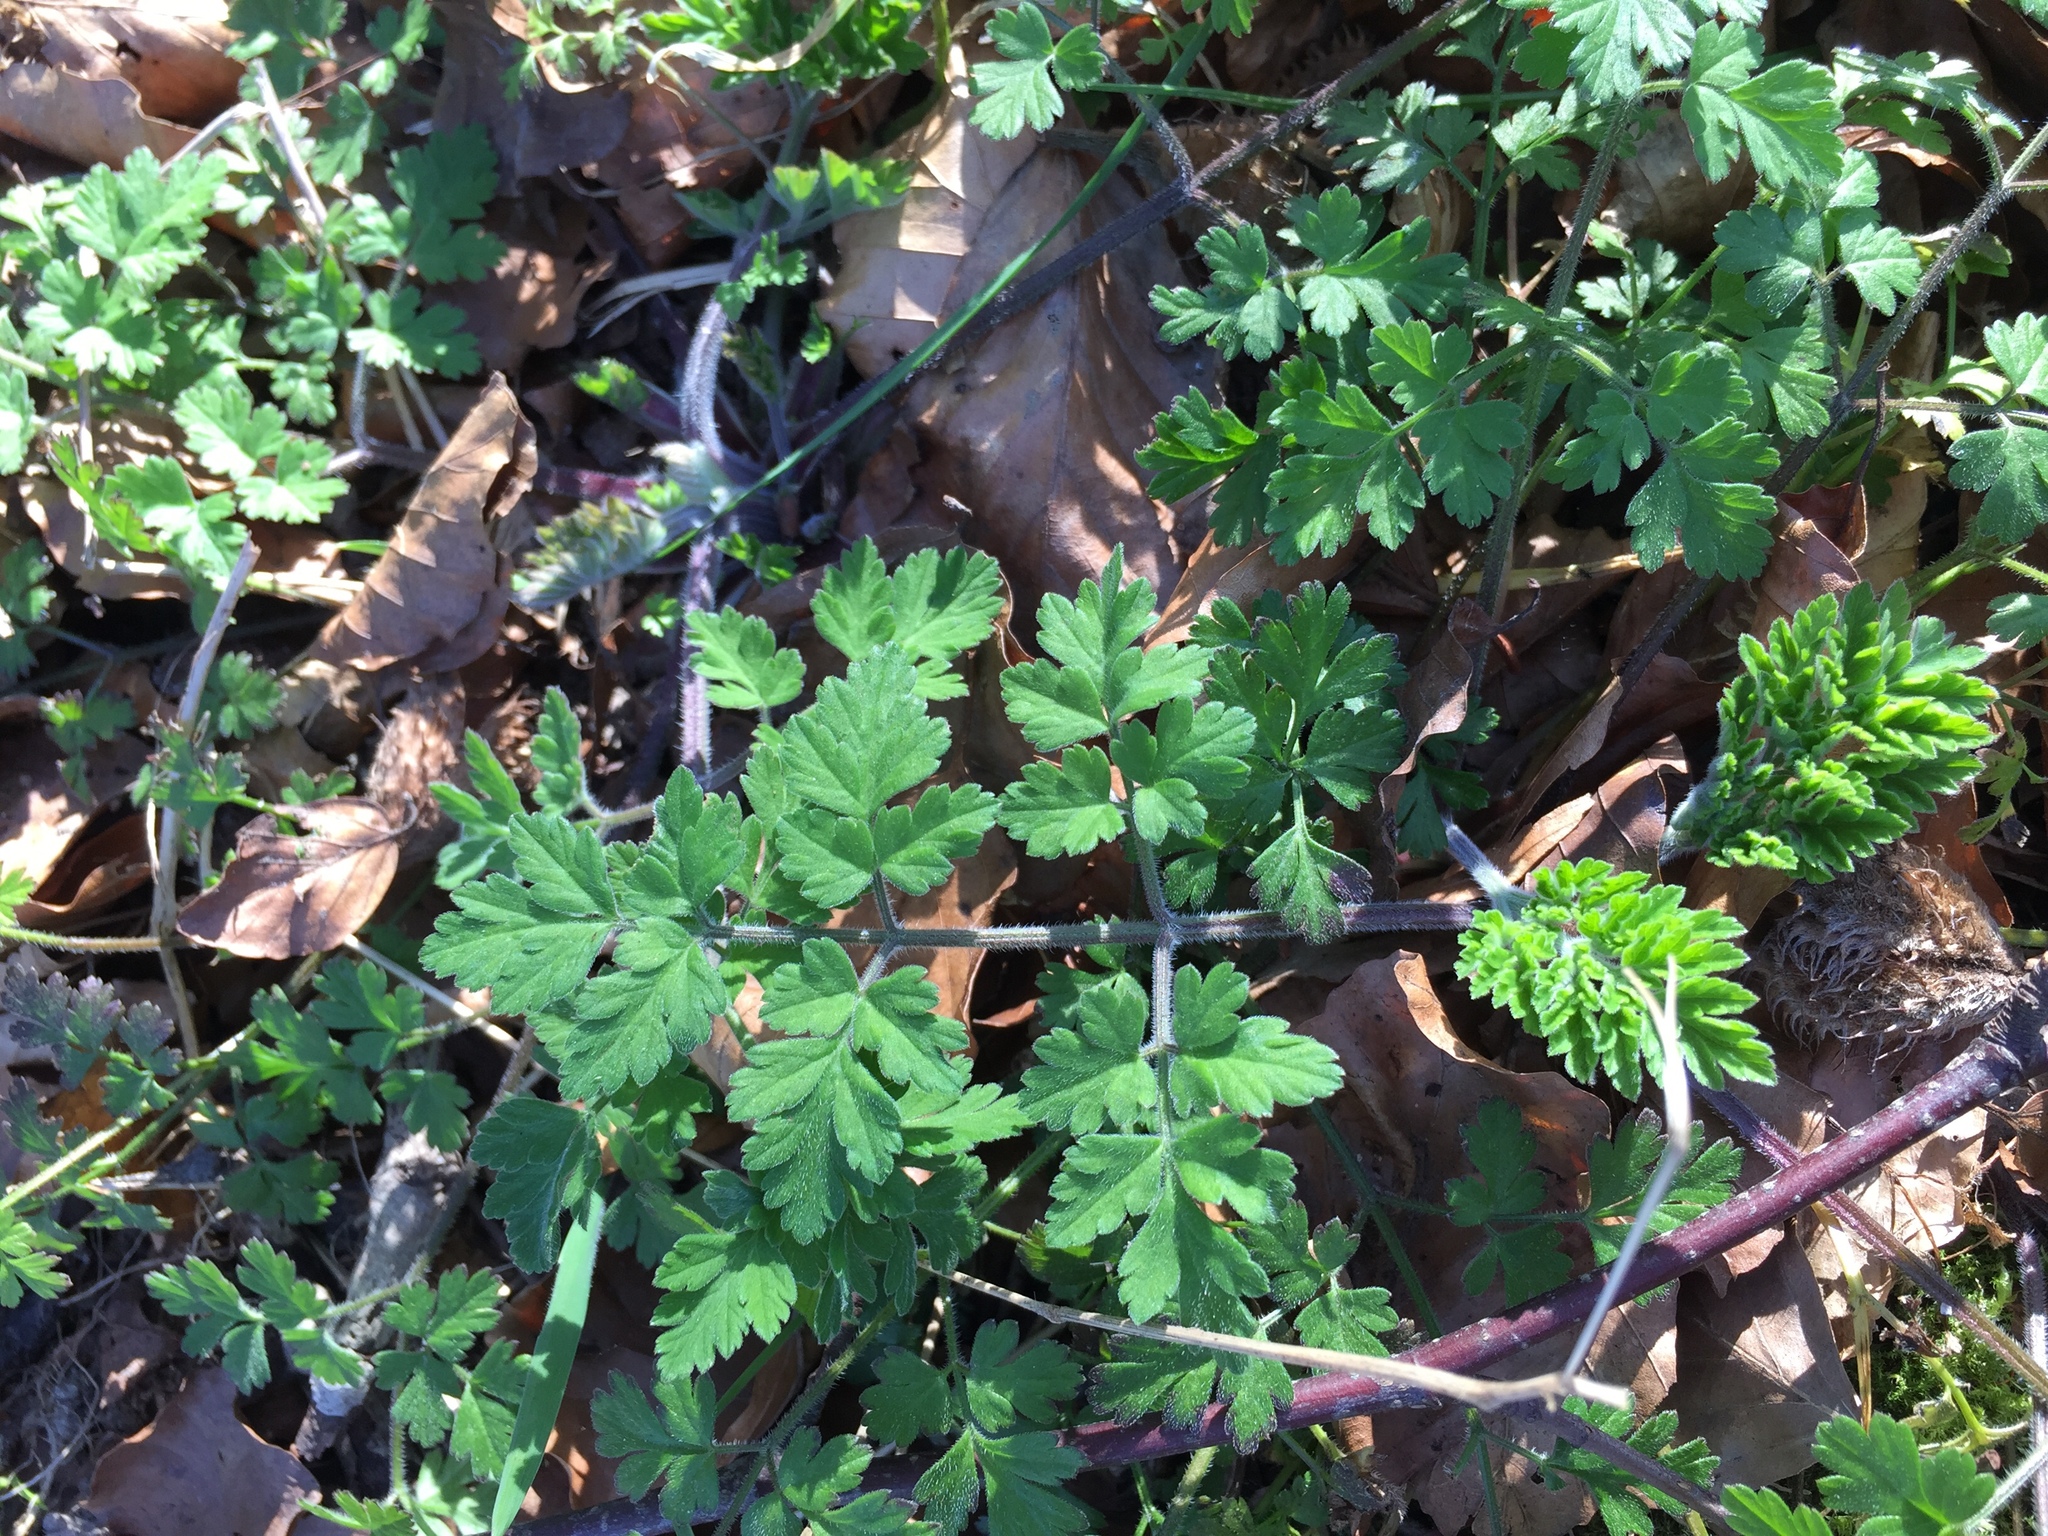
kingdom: Plantae
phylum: Tracheophyta
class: Magnoliopsida
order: Apiales
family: Apiaceae
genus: Chaerophyllum
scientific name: Chaerophyllum temulum
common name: Rough chervil
